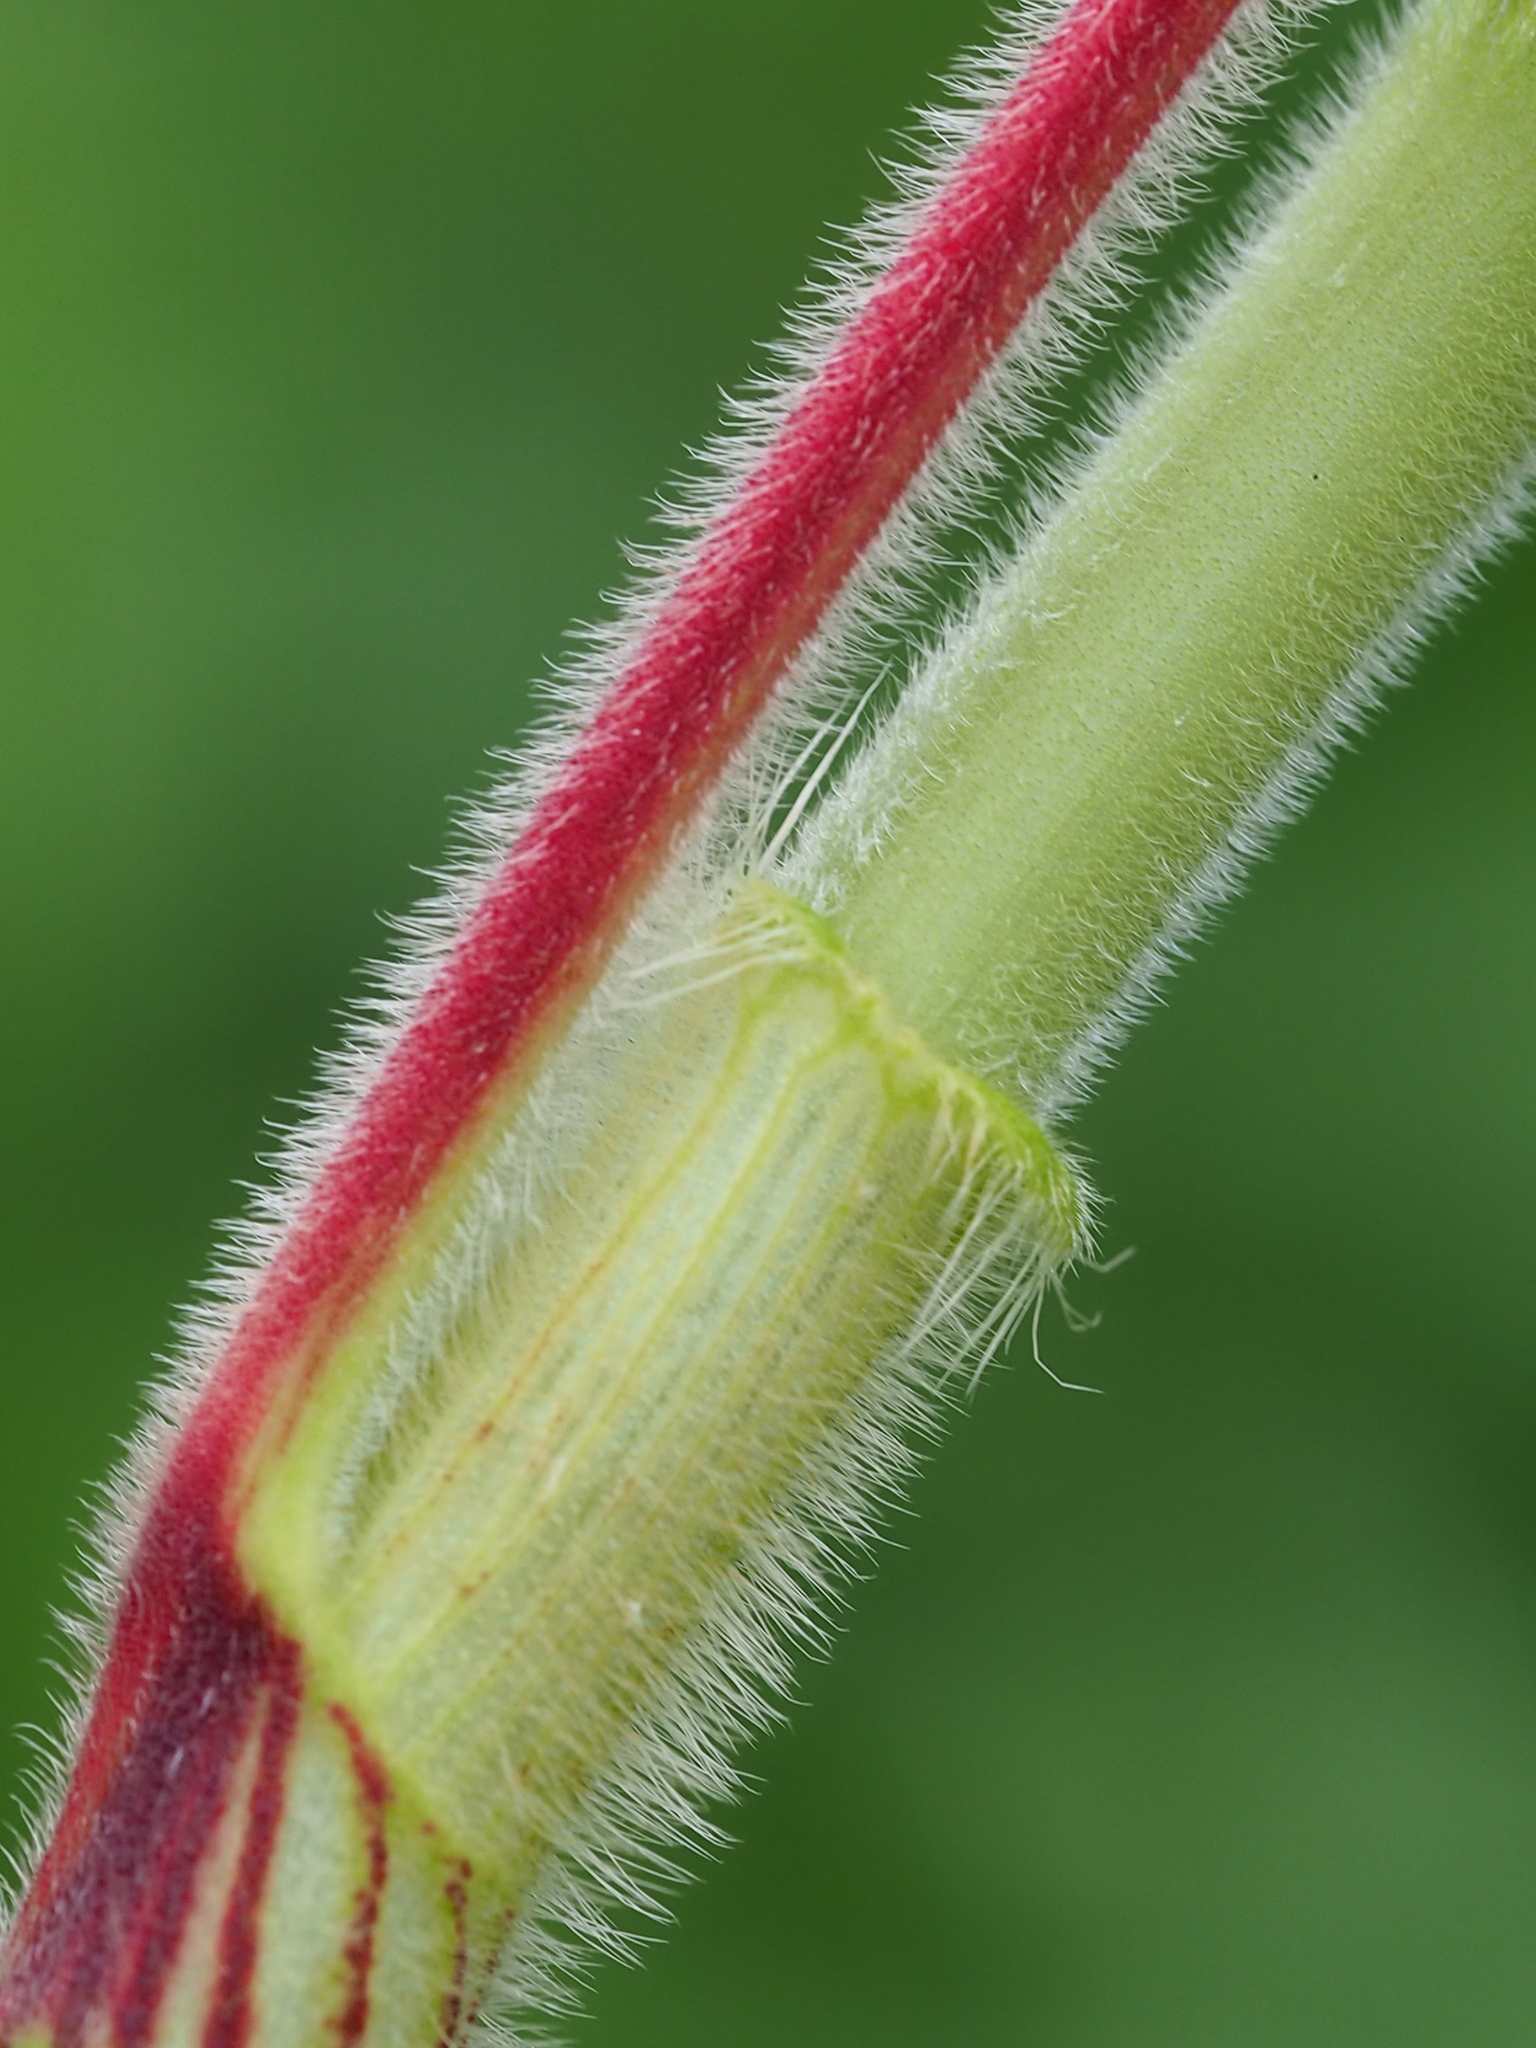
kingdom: Plantae
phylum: Tracheophyta
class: Magnoliopsida
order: Caryophyllales
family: Polygonaceae
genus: Persicaria
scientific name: Persicaria orientalis
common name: Kiss-me-over-the-garden-gate
